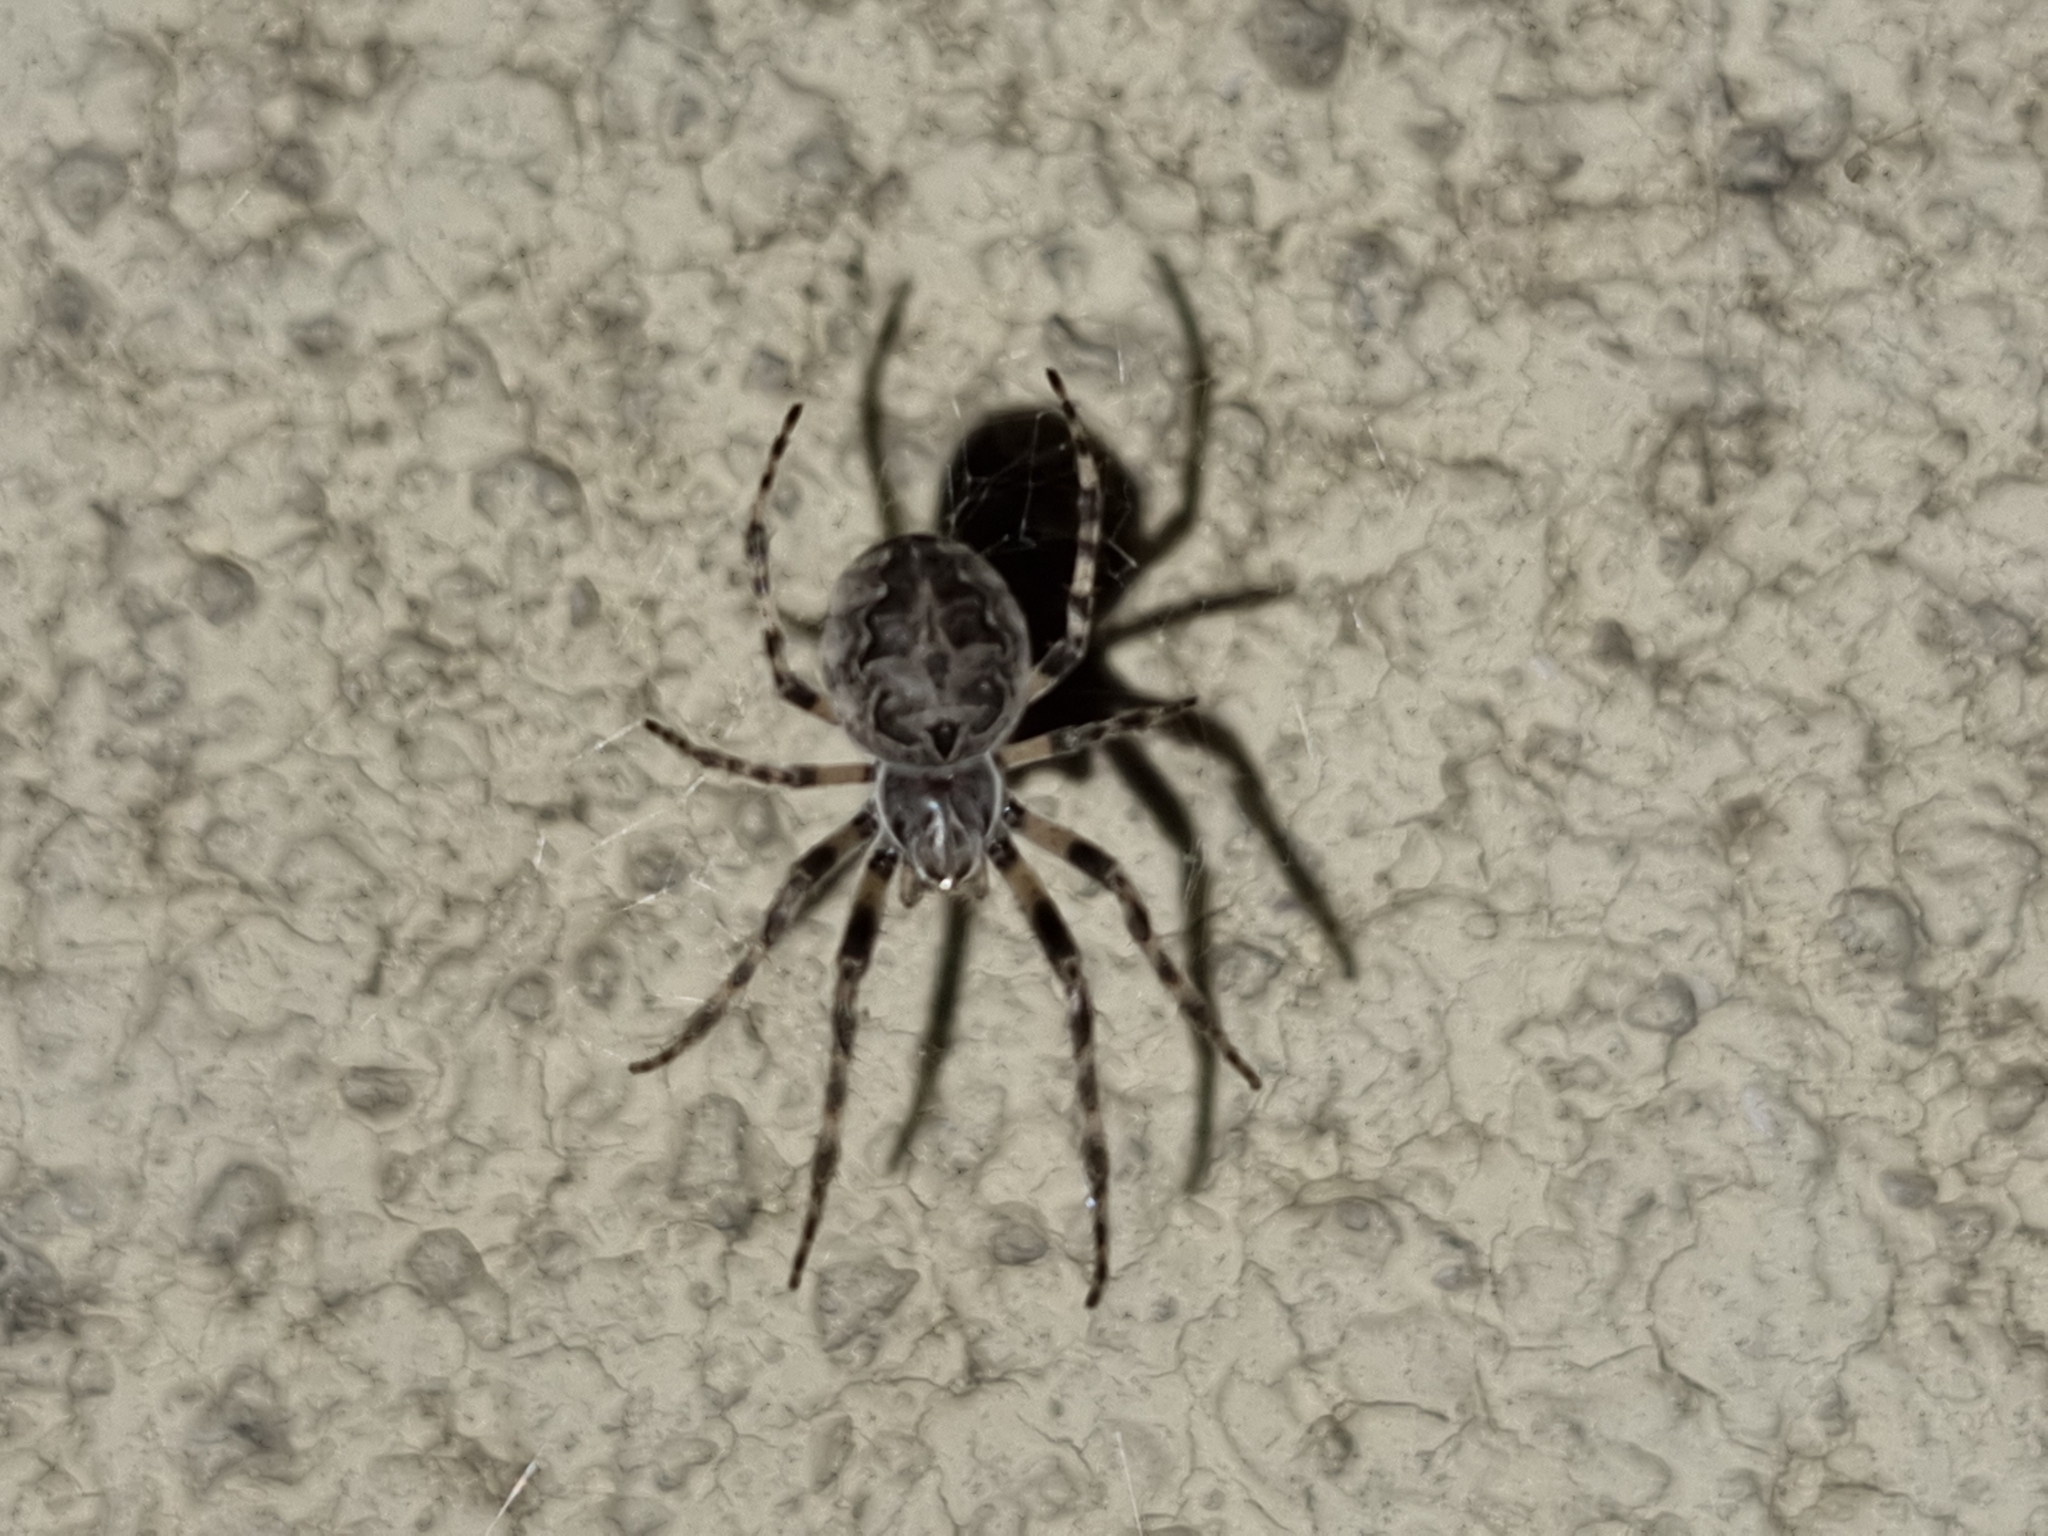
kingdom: Animalia
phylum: Arthropoda
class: Arachnida
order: Araneae
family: Araneidae
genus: Larinioides
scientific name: Larinioides sclopetarius
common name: Bridge orbweaver
